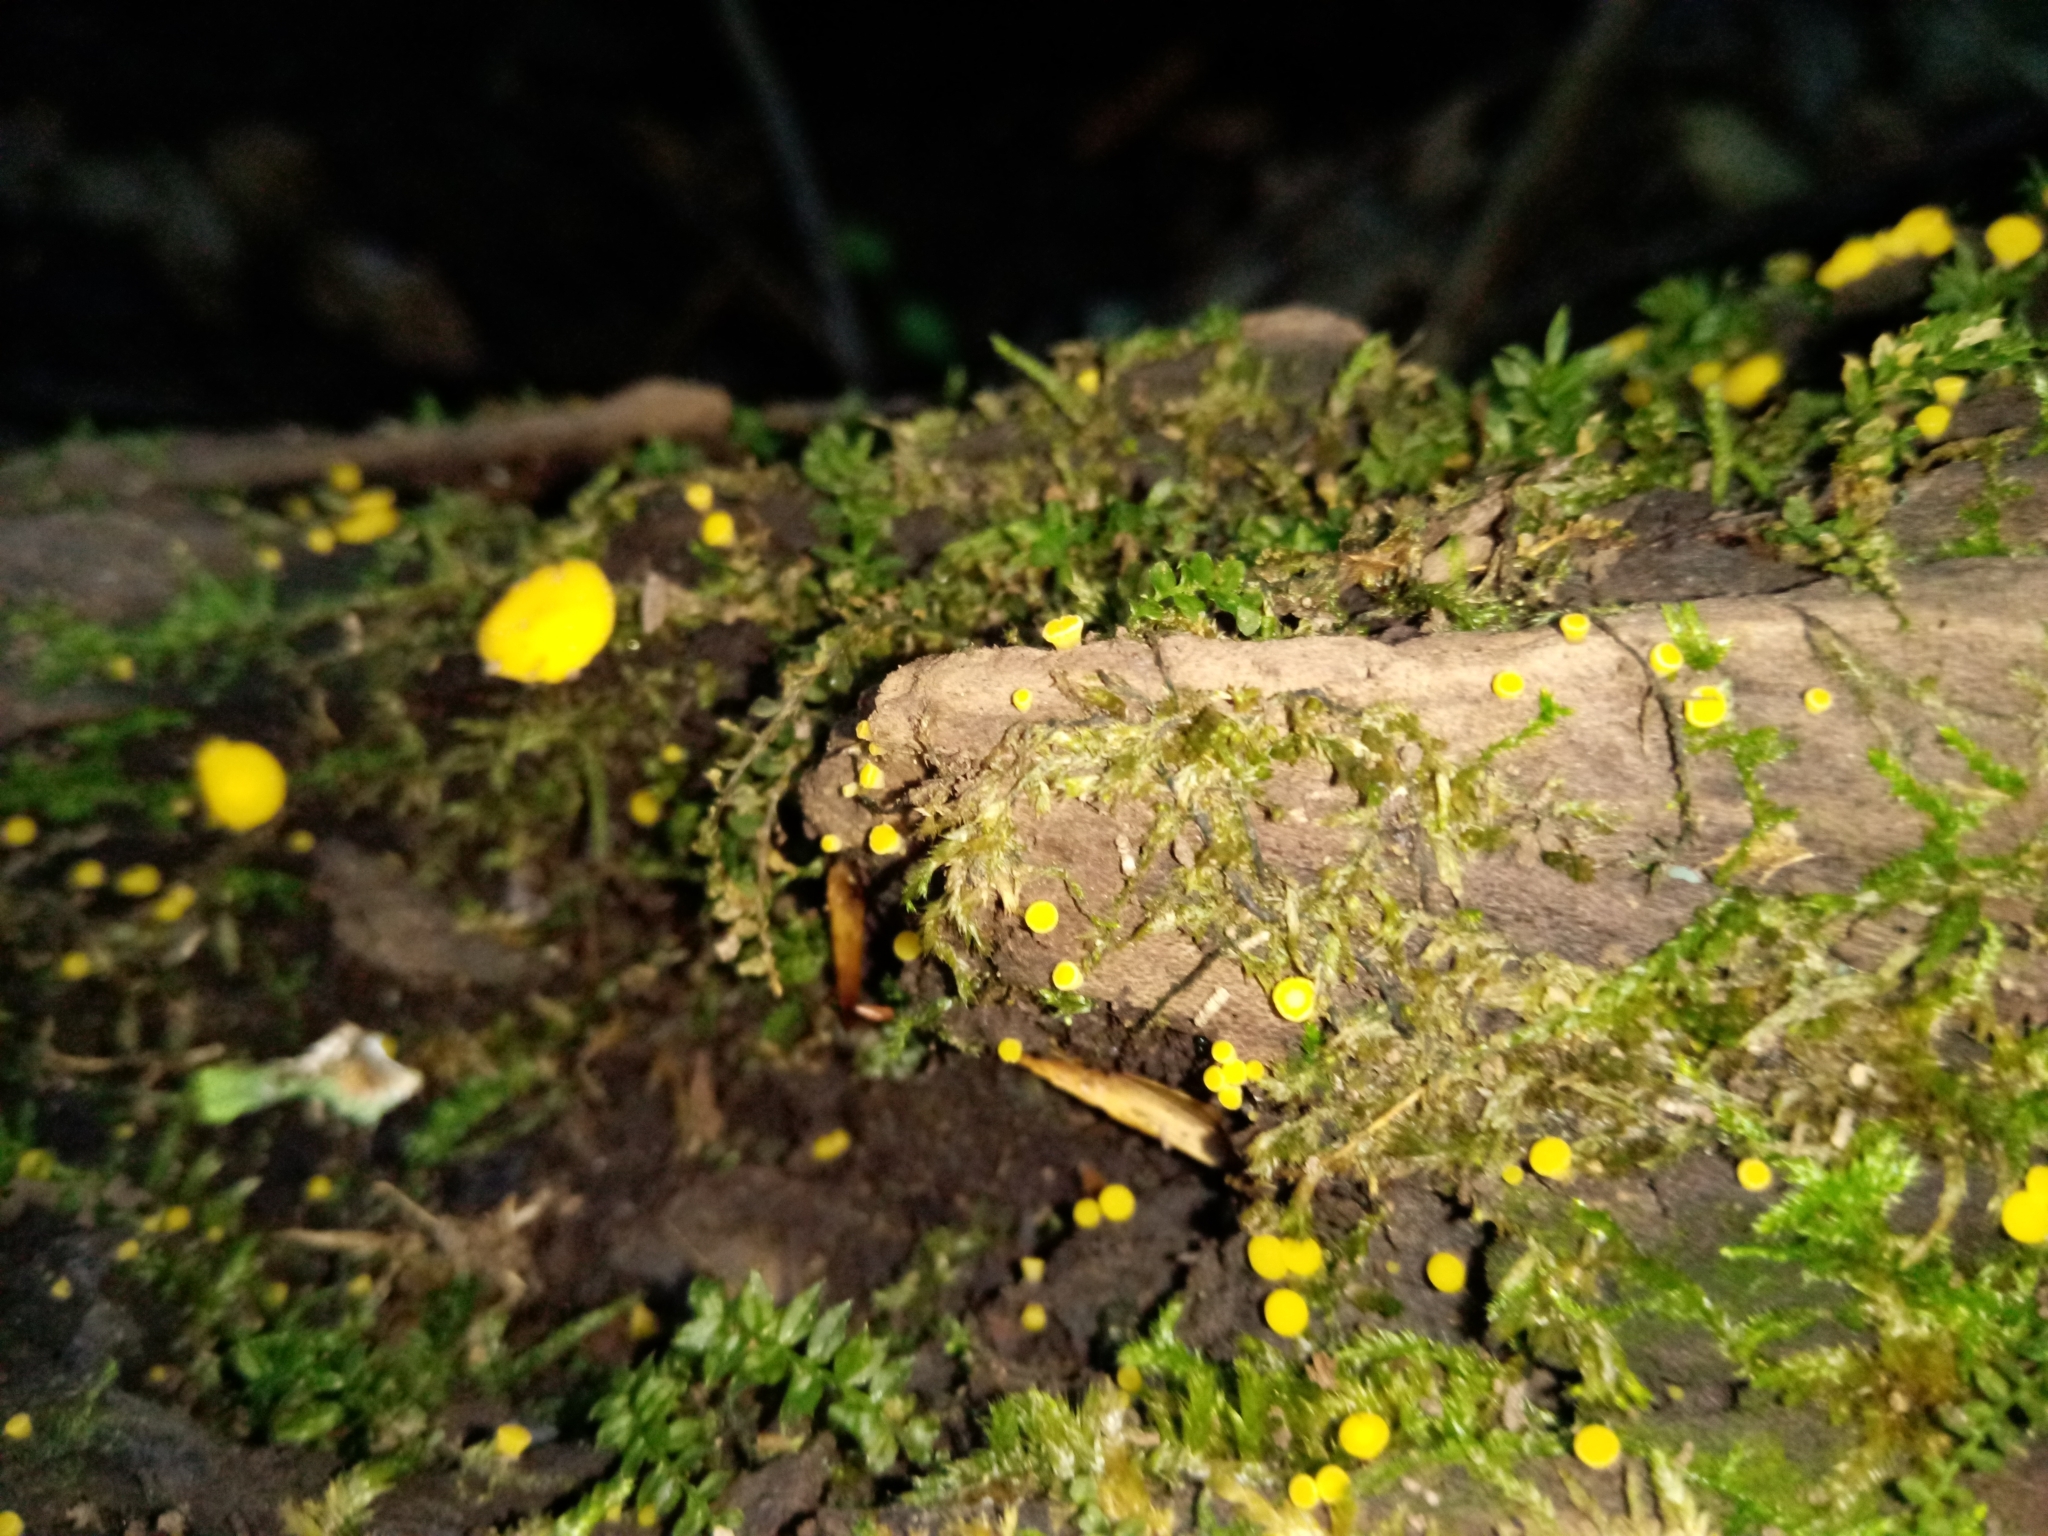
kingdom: Fungi
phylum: Ascomycota
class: Leotiomycetes
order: Helotiales
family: Pezizellaceae
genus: Calycina
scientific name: Calycina citrina
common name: Yellow fairy cups
